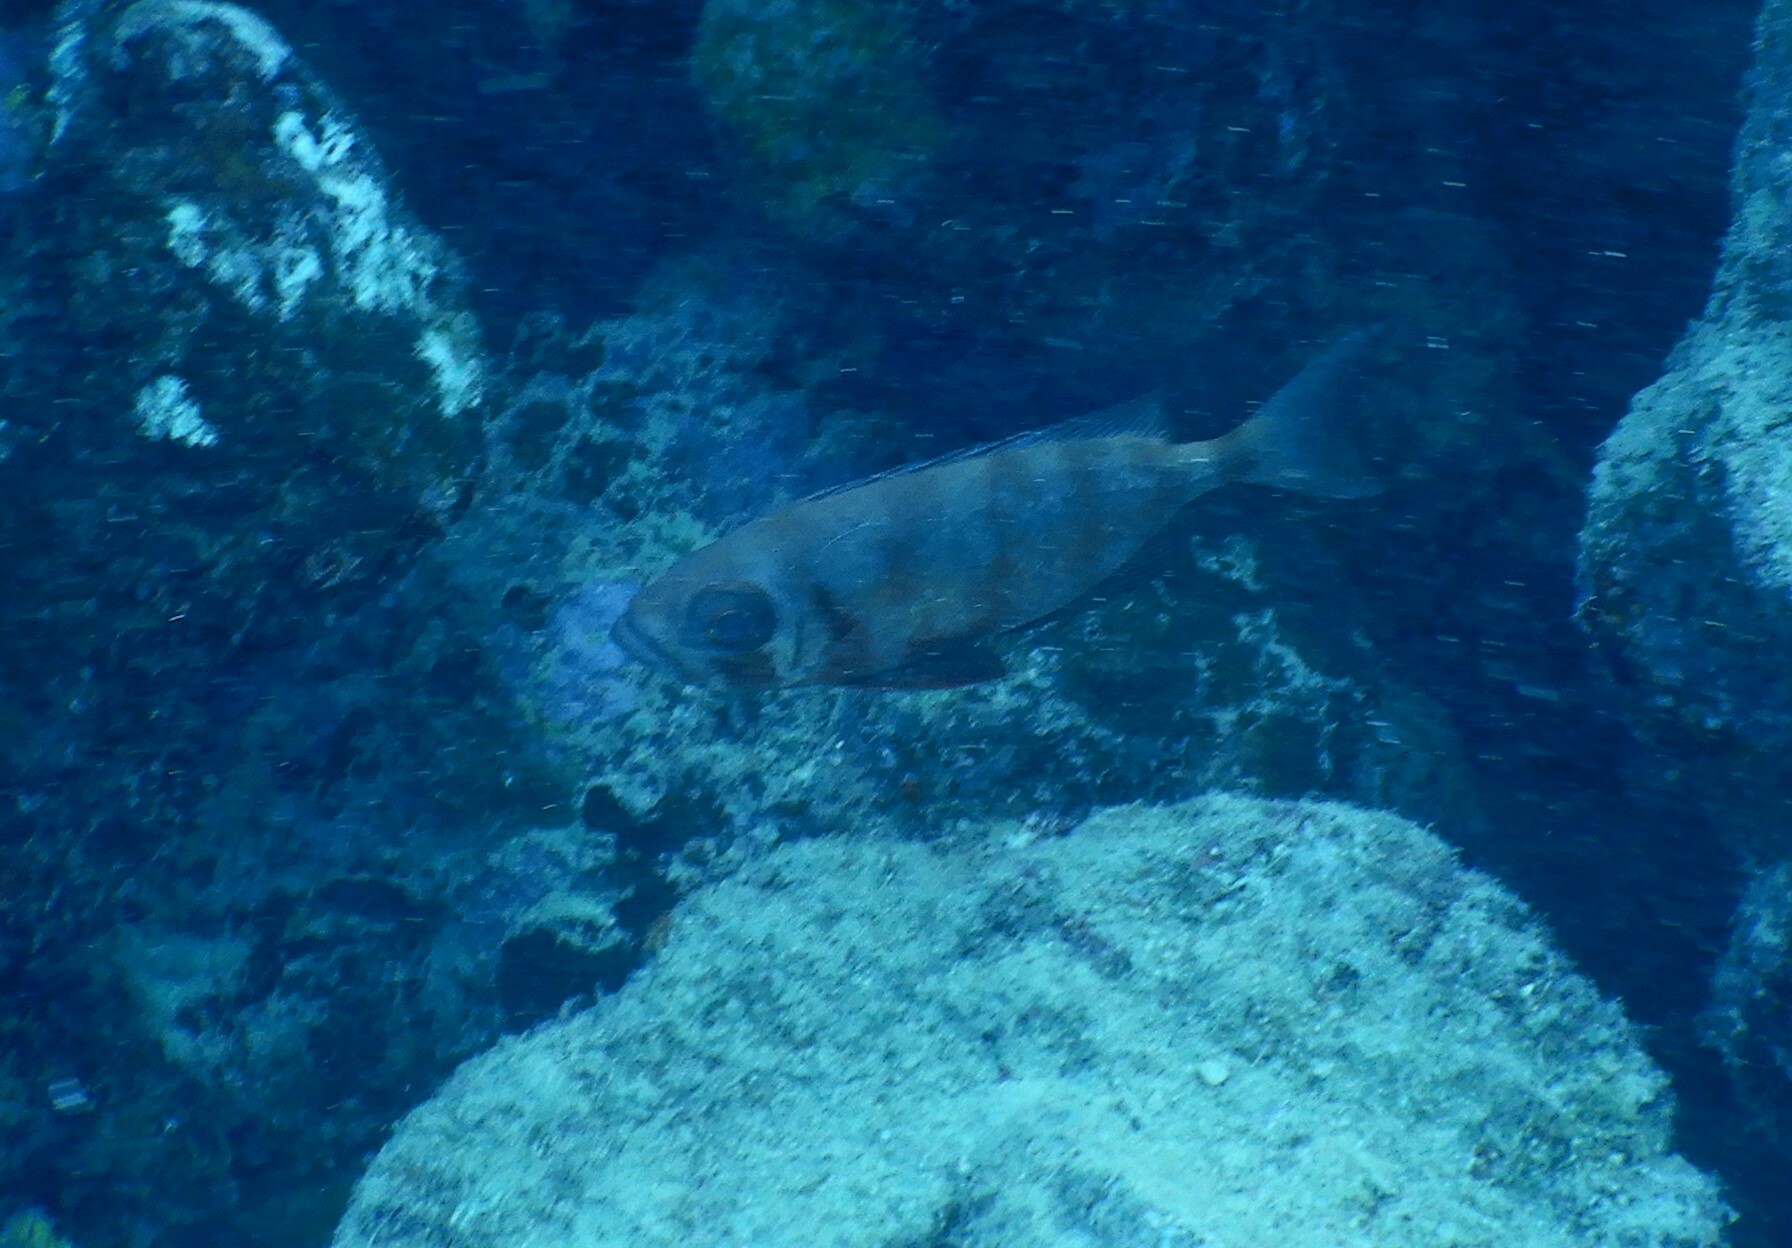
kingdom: Animalia
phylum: Chordata
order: Perciformes
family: Priacanthidae
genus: Priacanthus
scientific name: Priacanthus hamrur
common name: Moontail bullseye
